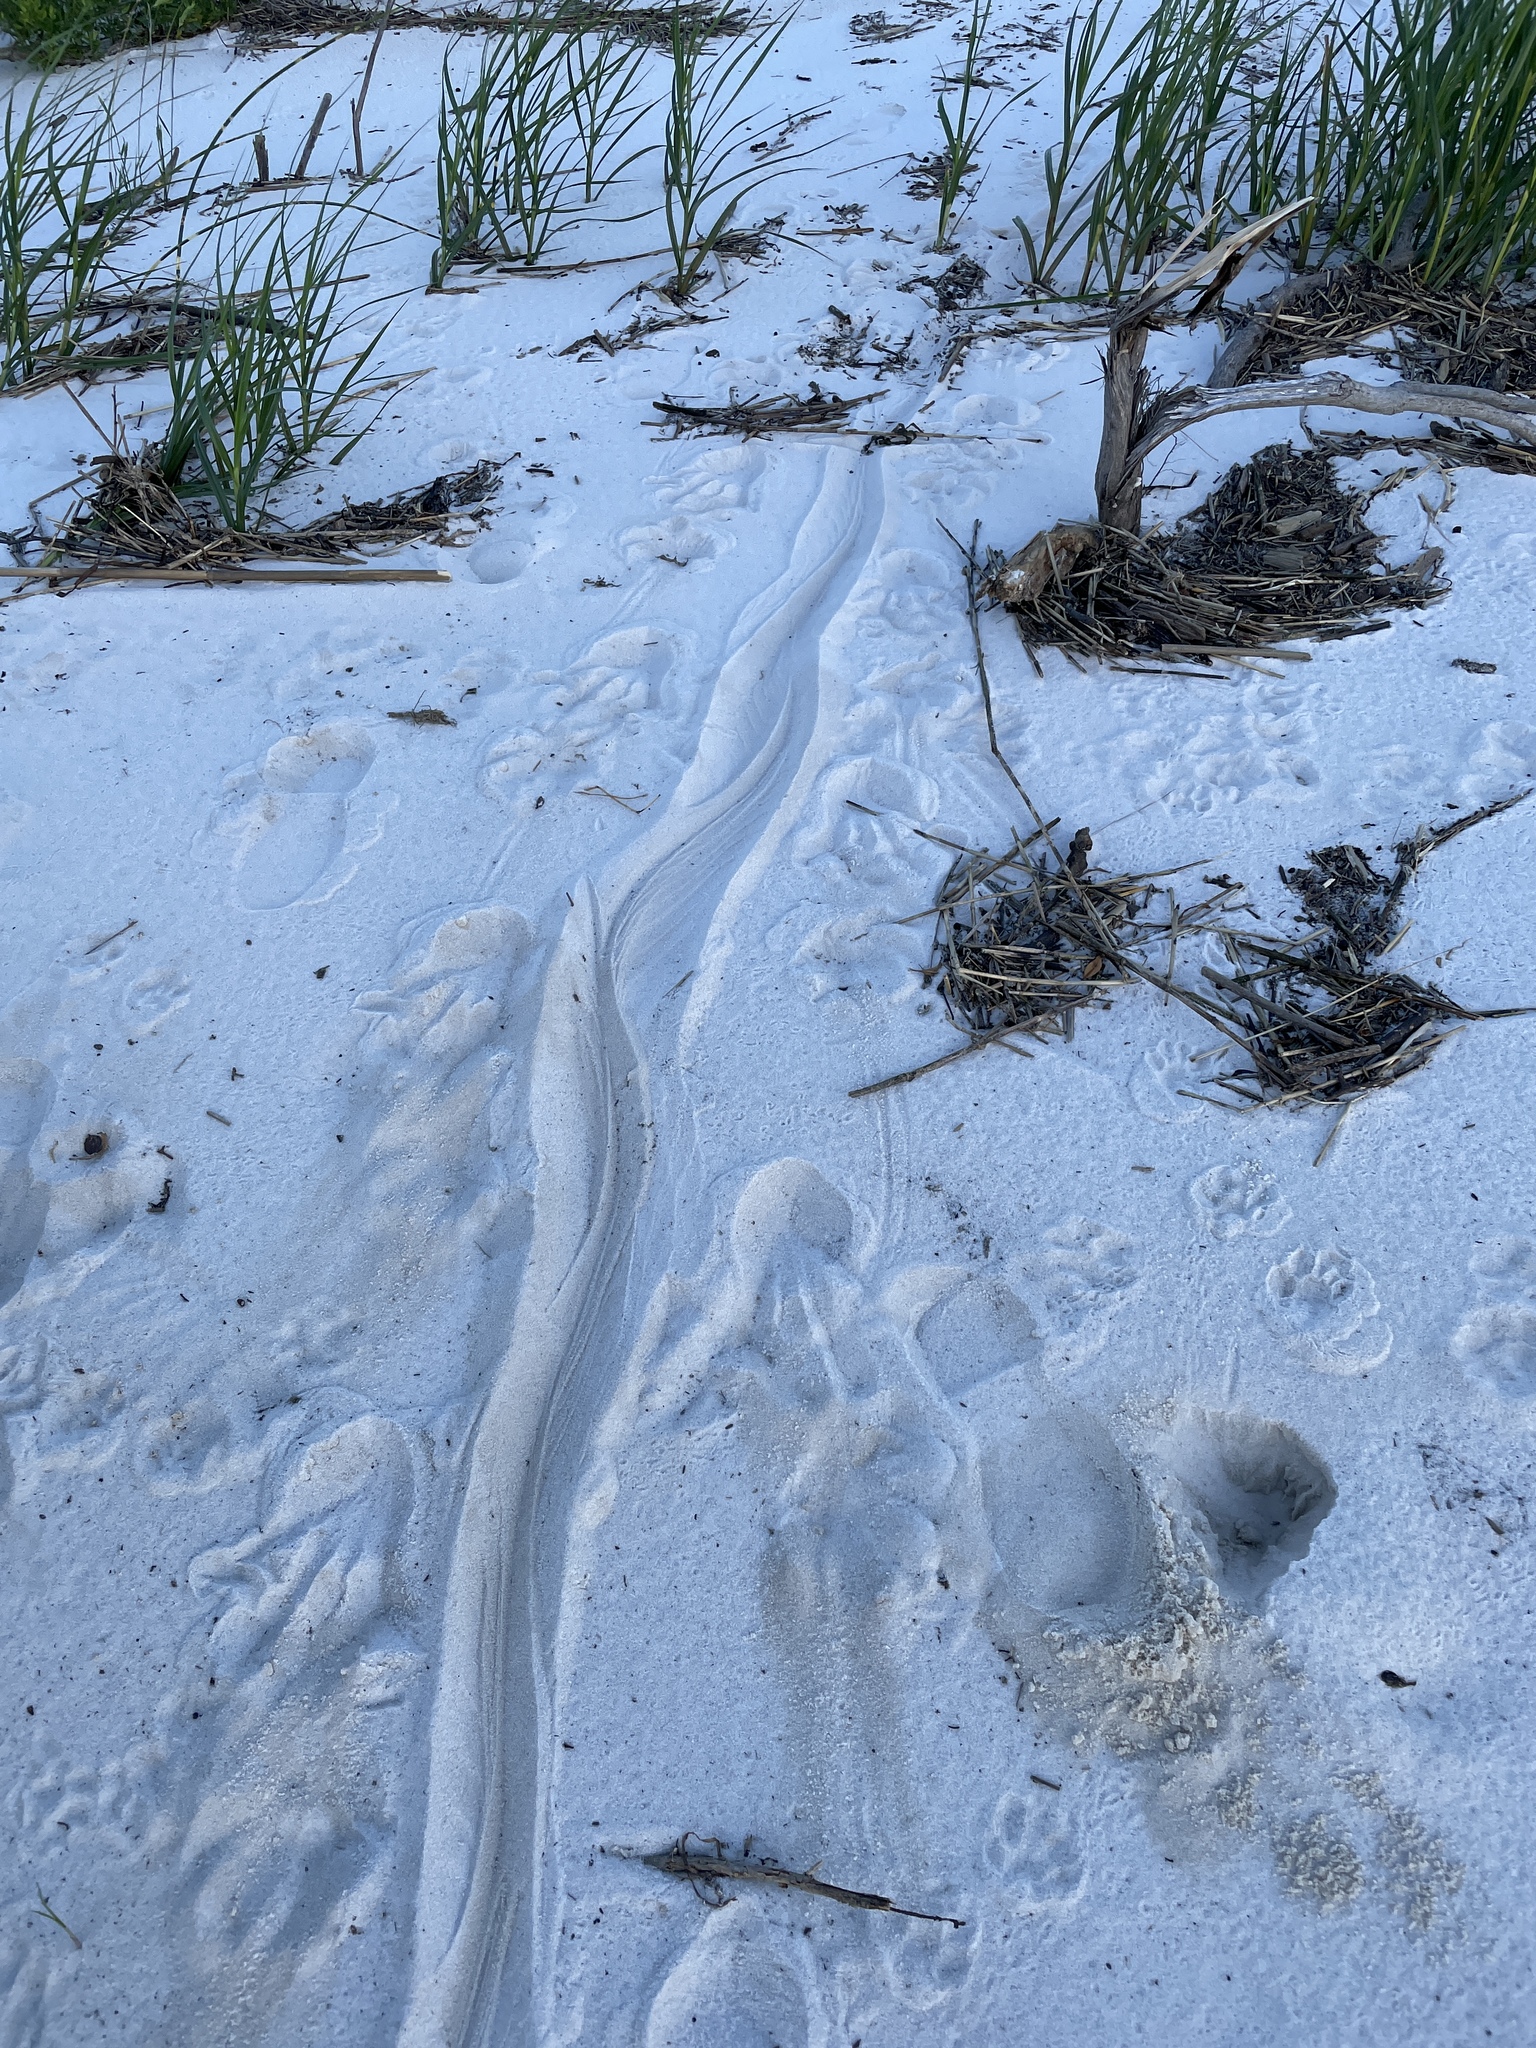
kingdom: Animalia
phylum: Chordata
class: Crocodylia
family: Alligatoridae
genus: Alligator
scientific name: Alligator mississippiensis
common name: American alligator
